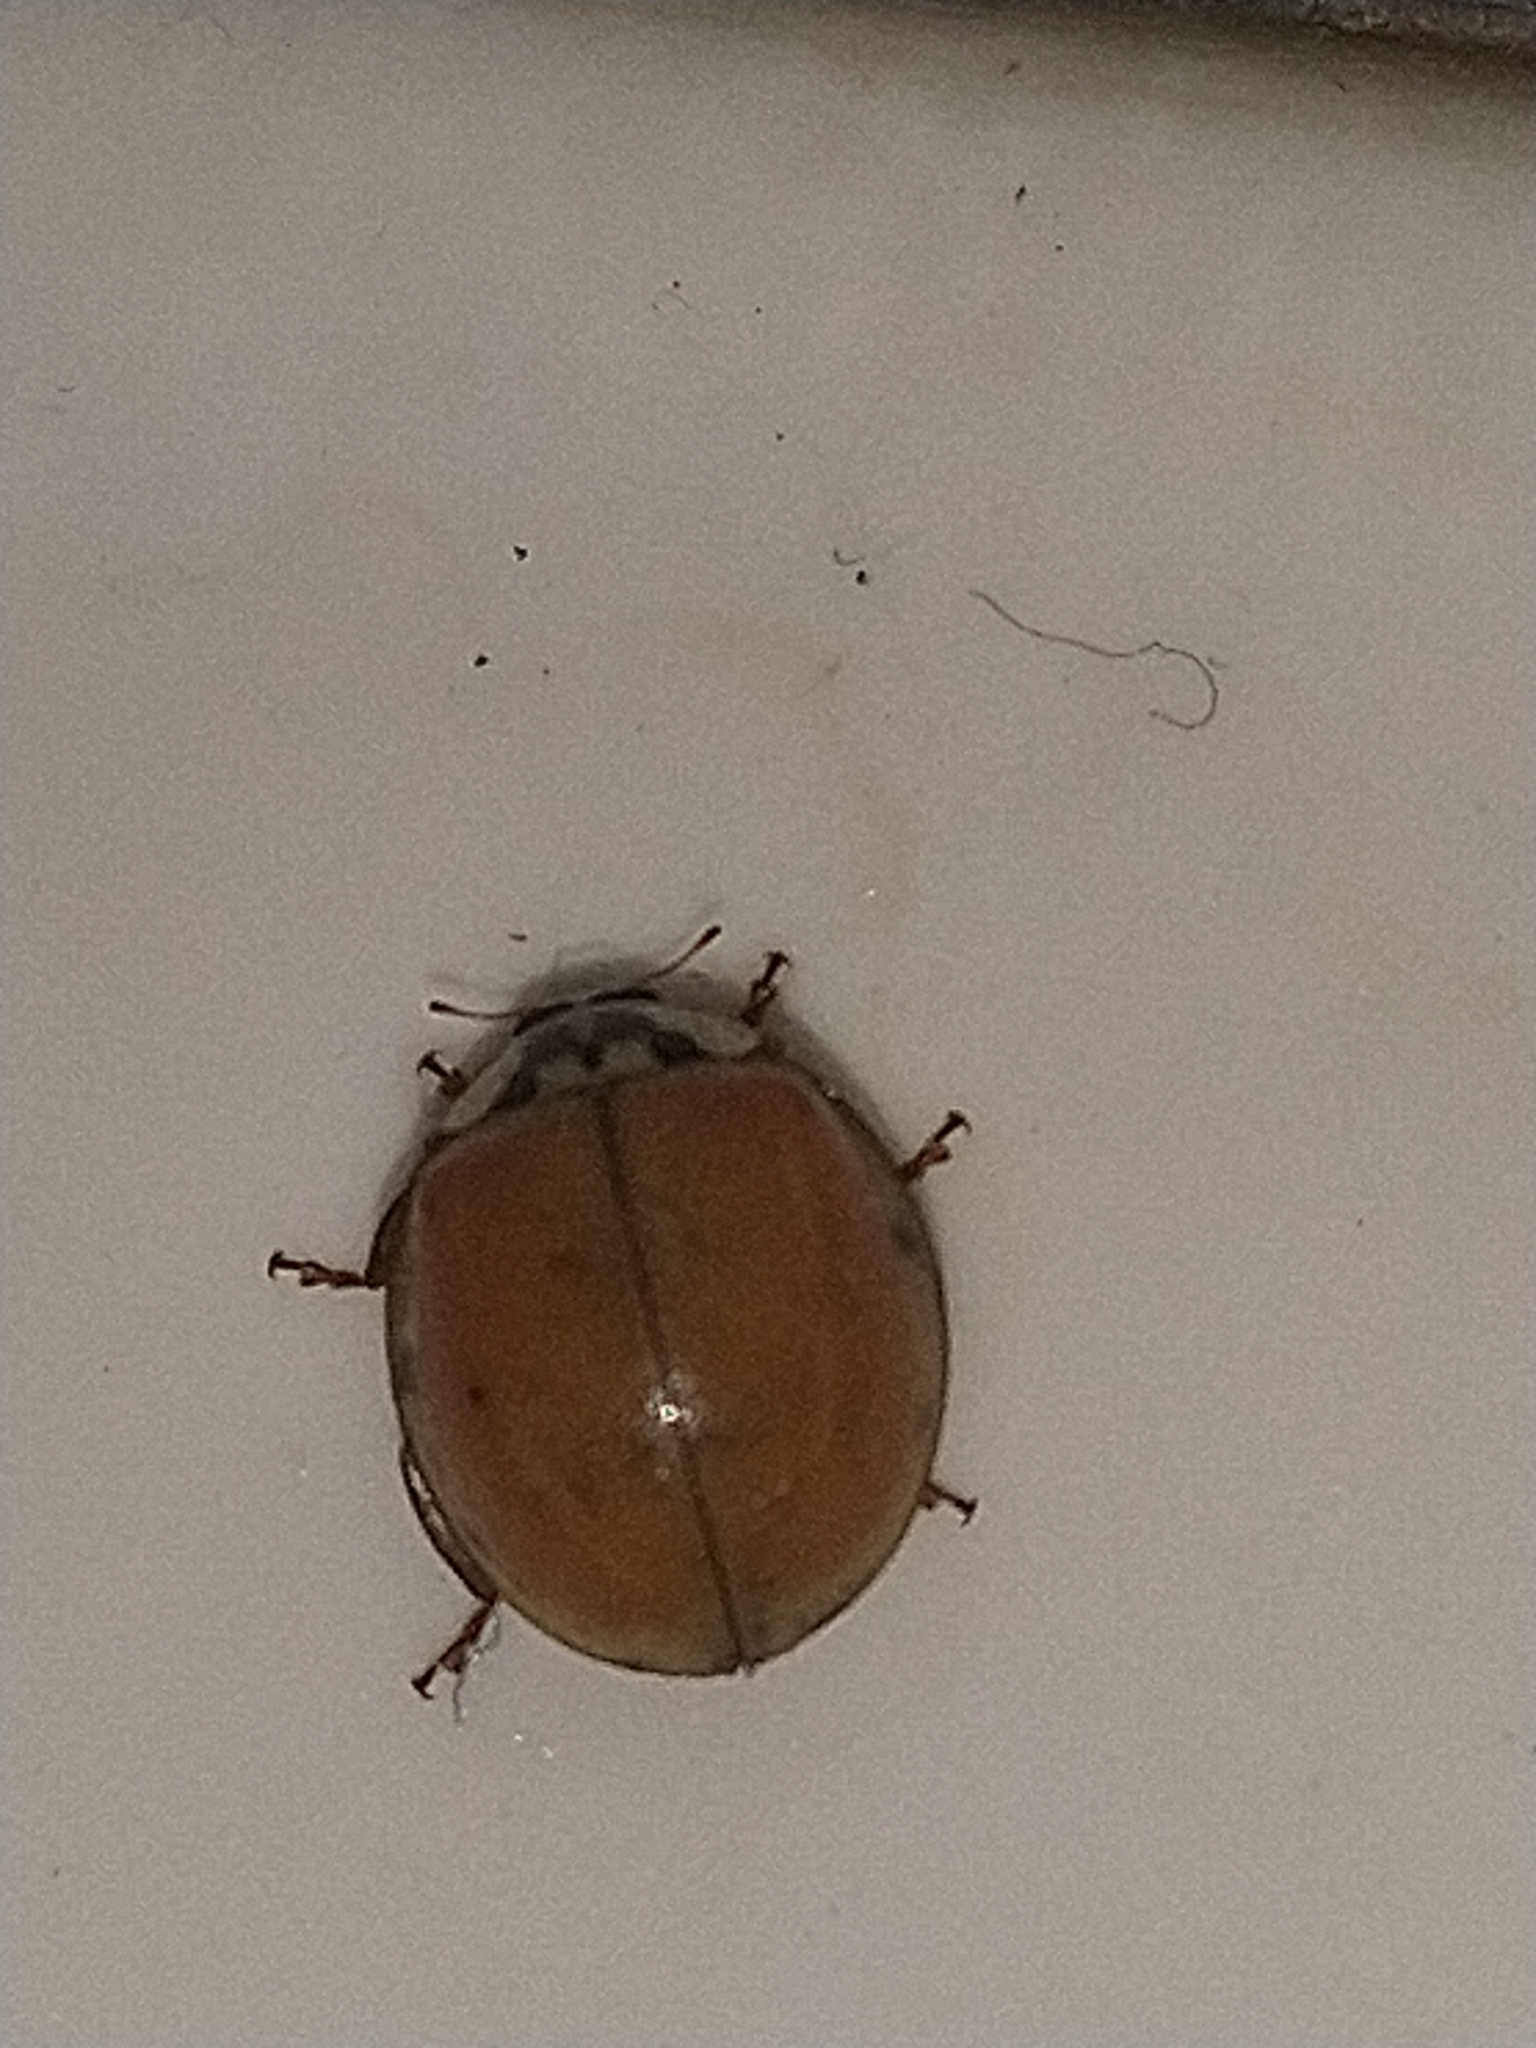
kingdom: Animalia
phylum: Arthropoda
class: Insecta
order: Coleoptera
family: Coccinellidae
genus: Harmonia
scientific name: Harmonia axyridis
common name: Harlequin ladybird
